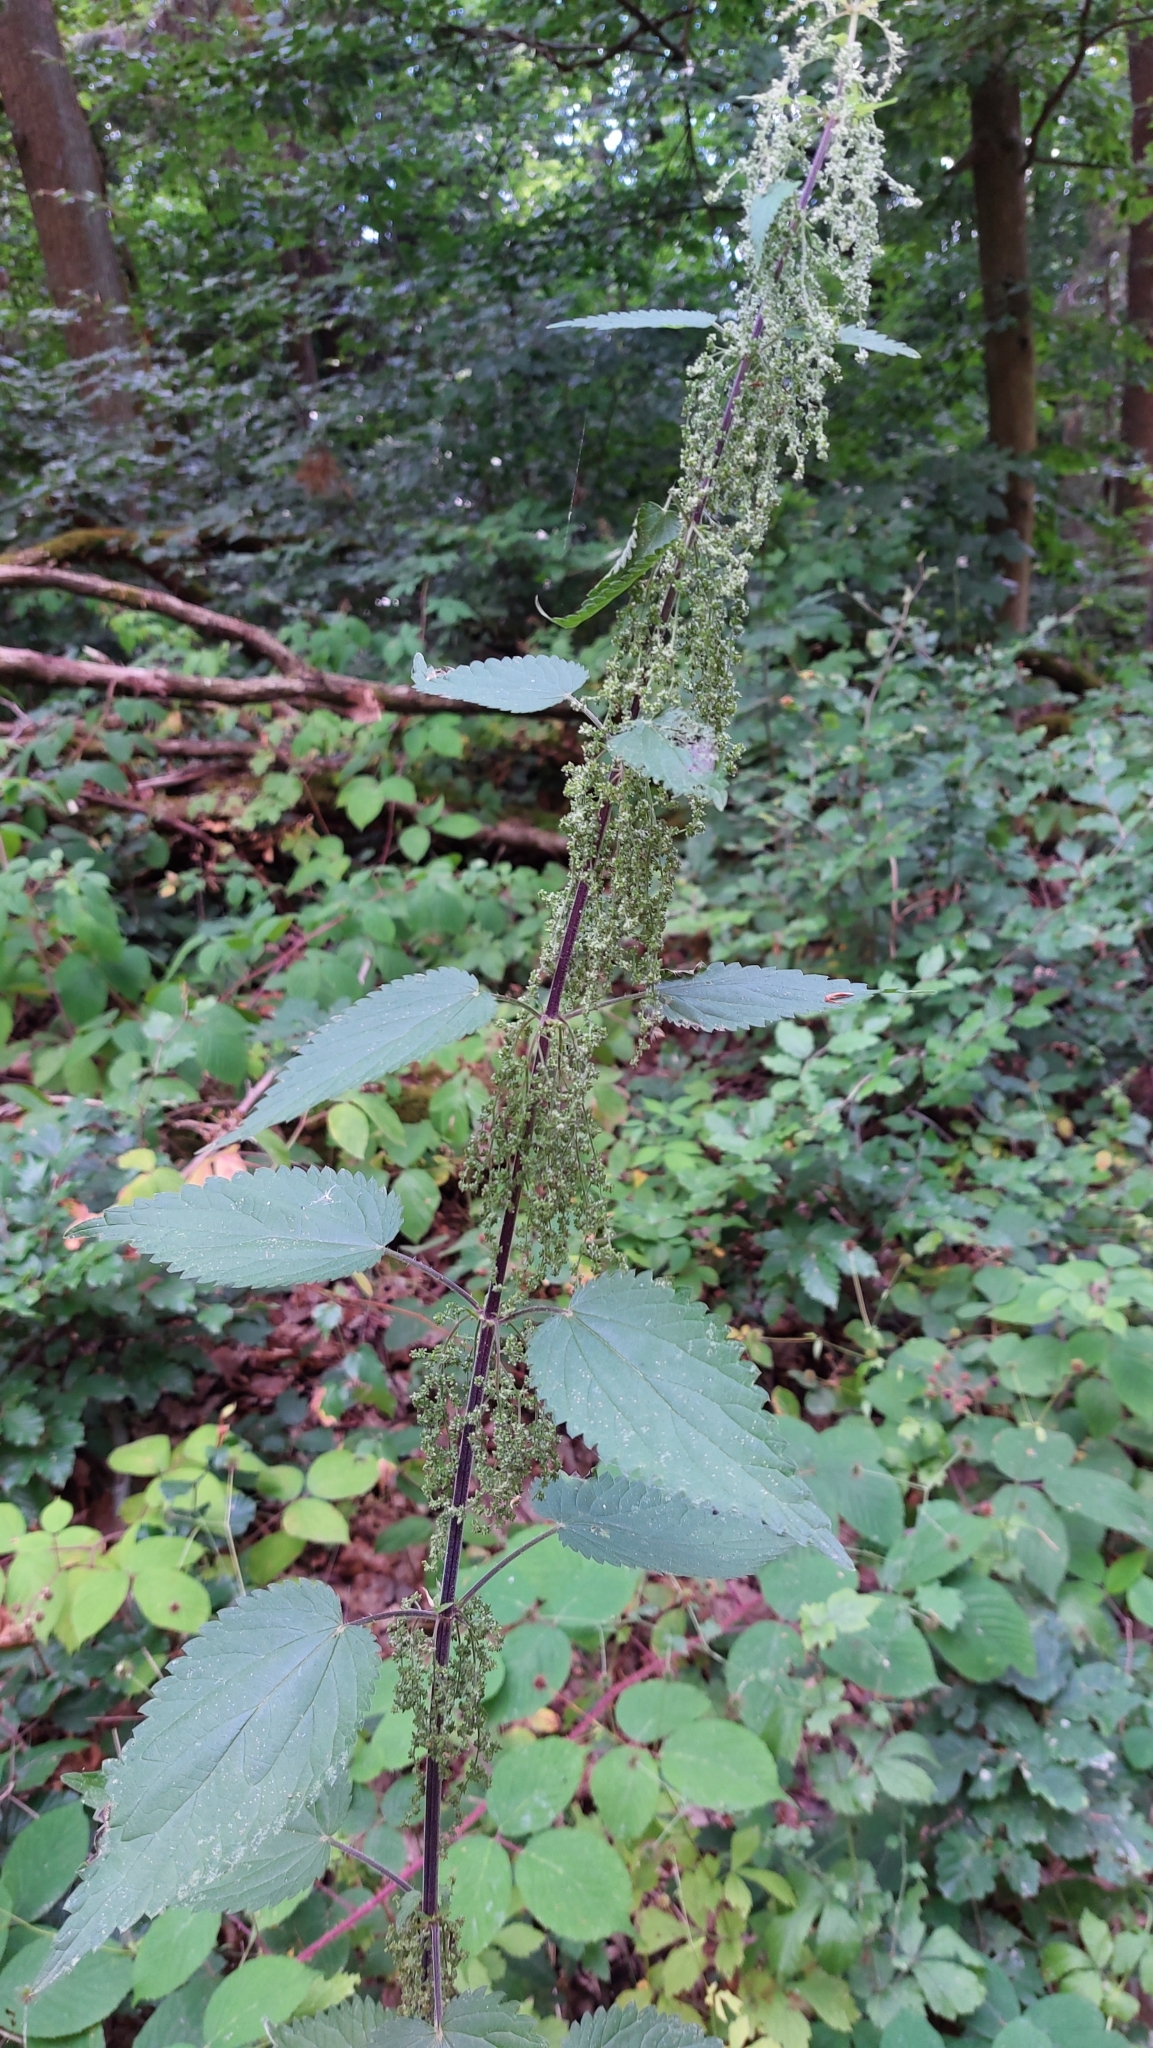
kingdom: Plantae
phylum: Tracheophyta
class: Magnoliopsida
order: Rosales
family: Urticaceae
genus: Urtica
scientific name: Urtica dioica
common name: Common nettle
